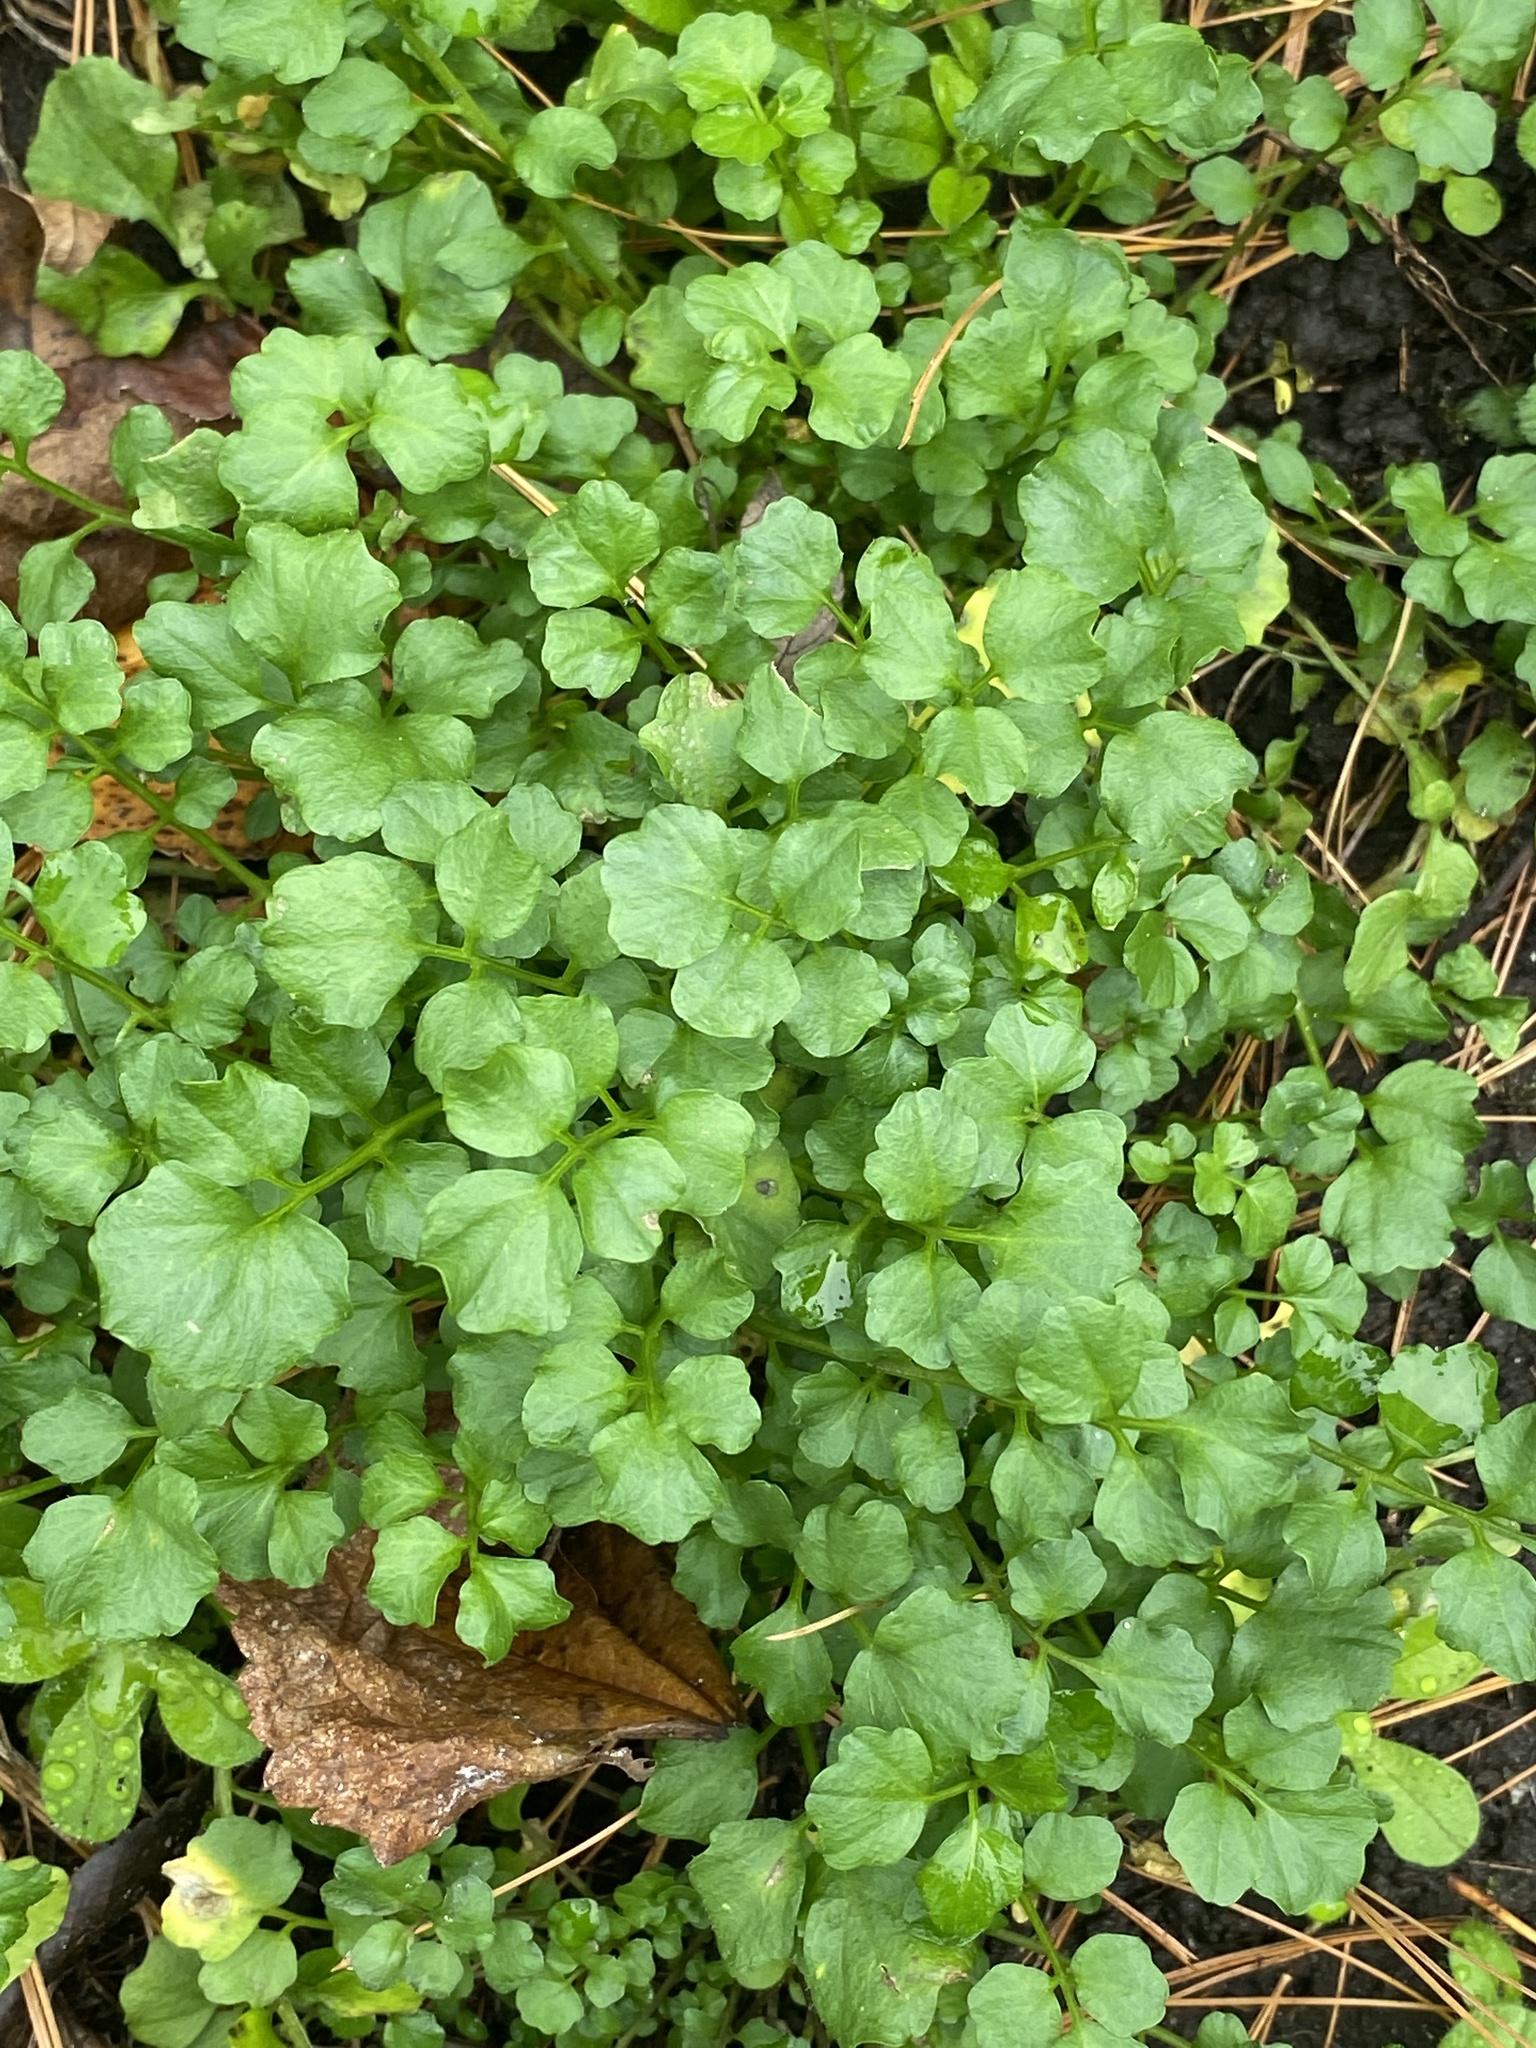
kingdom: Plantae
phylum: Tracheophyta
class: Magnoliopsida
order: Brassicales
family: Brassicaceae
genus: Cardamine
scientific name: Cardamine hirsuta
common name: Hairy bittercress
